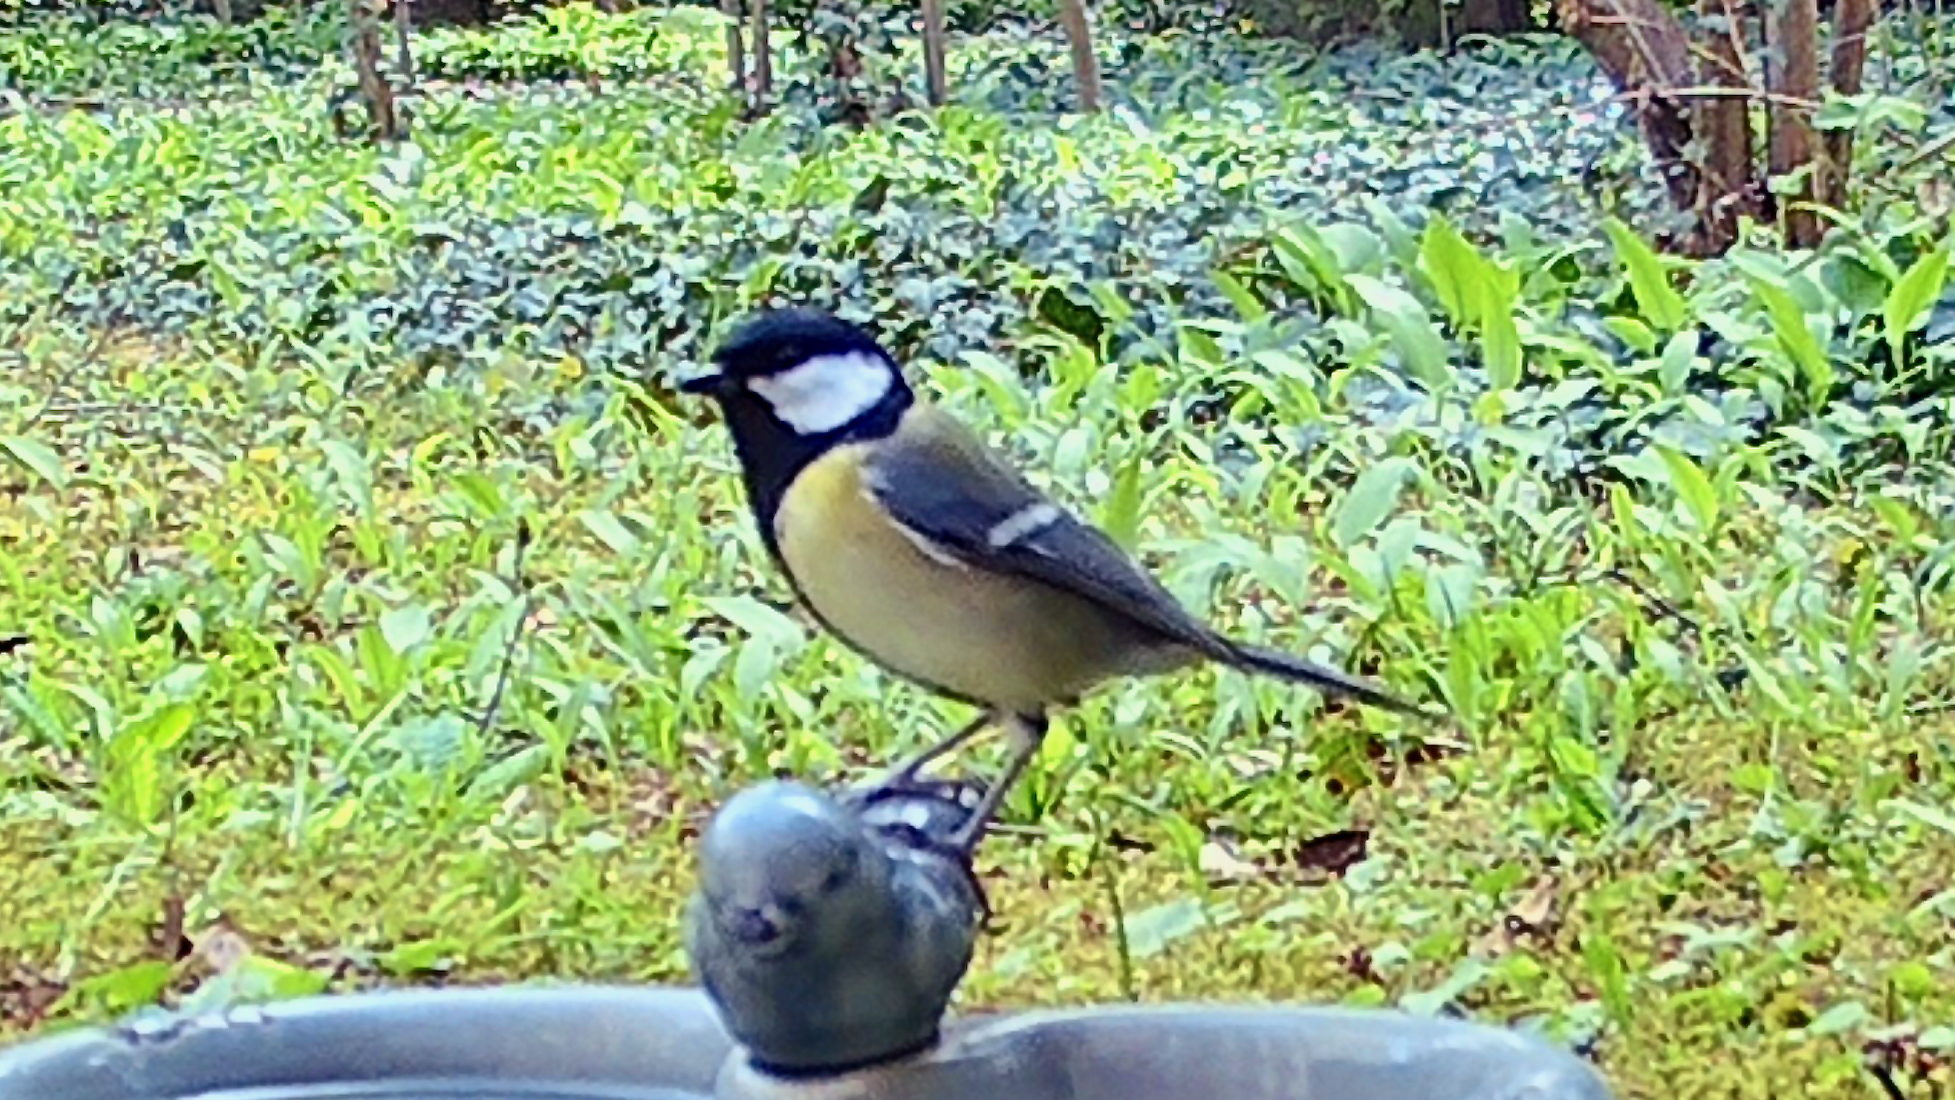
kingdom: Animalia
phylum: Chordata
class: Aves
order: Passeriformes
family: Paridae
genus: Parus
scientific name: Parus major
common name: Great tit
